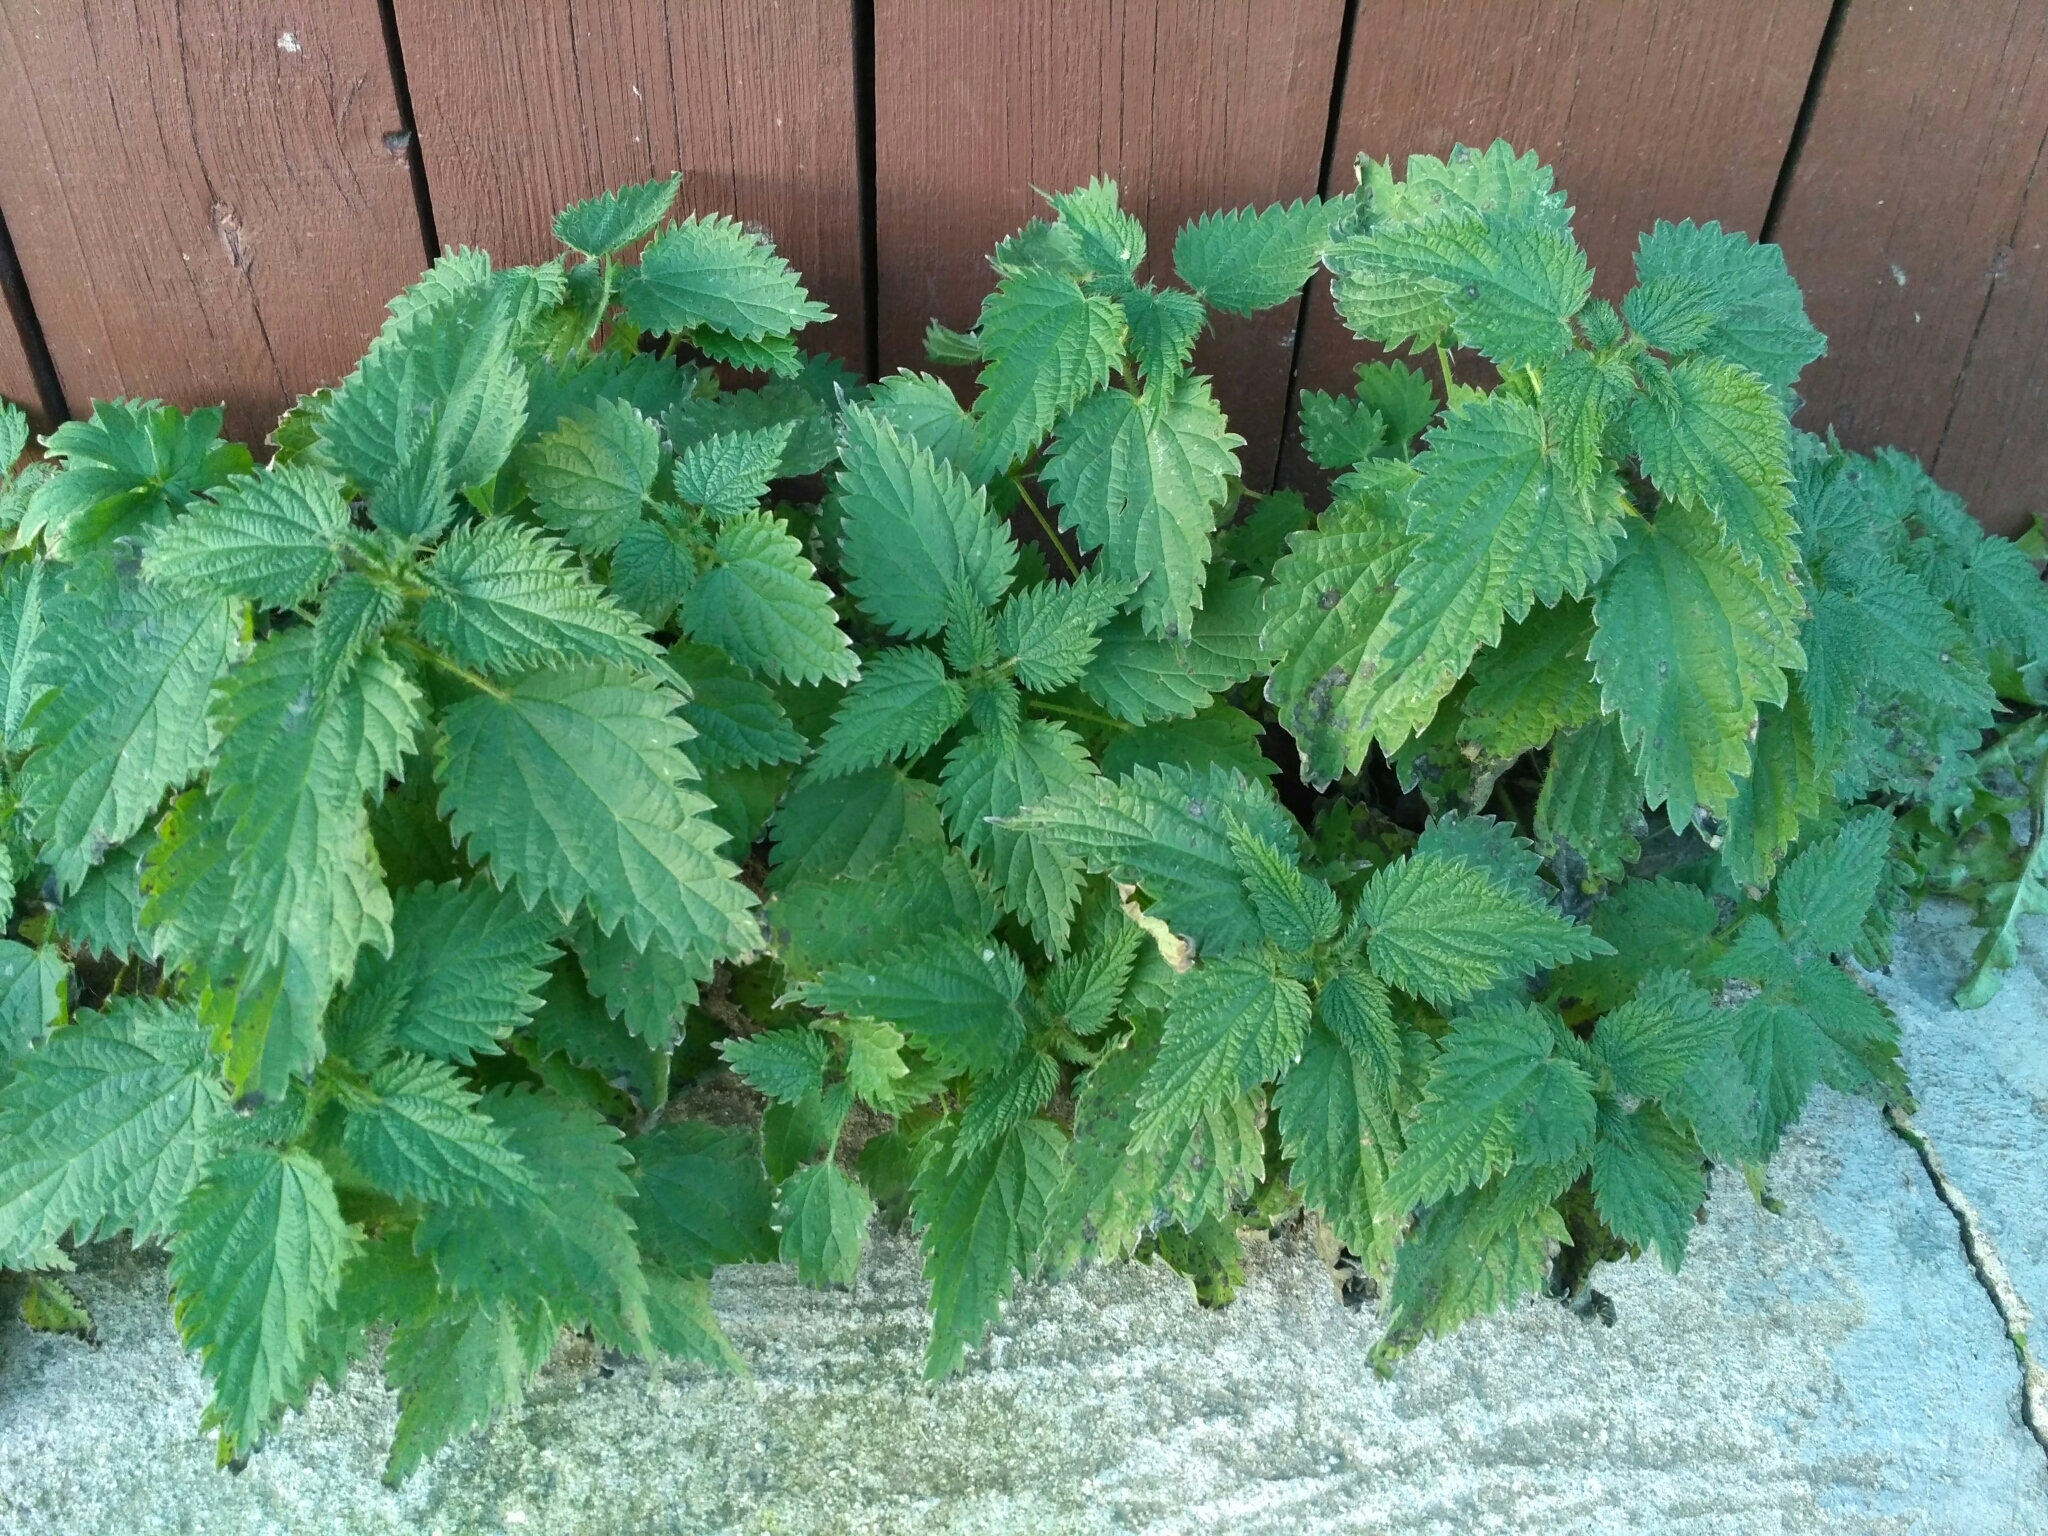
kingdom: Plantae
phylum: Tracheophyta
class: Magnoliopsida
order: Rosales
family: Urticaceae
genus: Urtica
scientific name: Urtica dioica
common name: Common nettle
